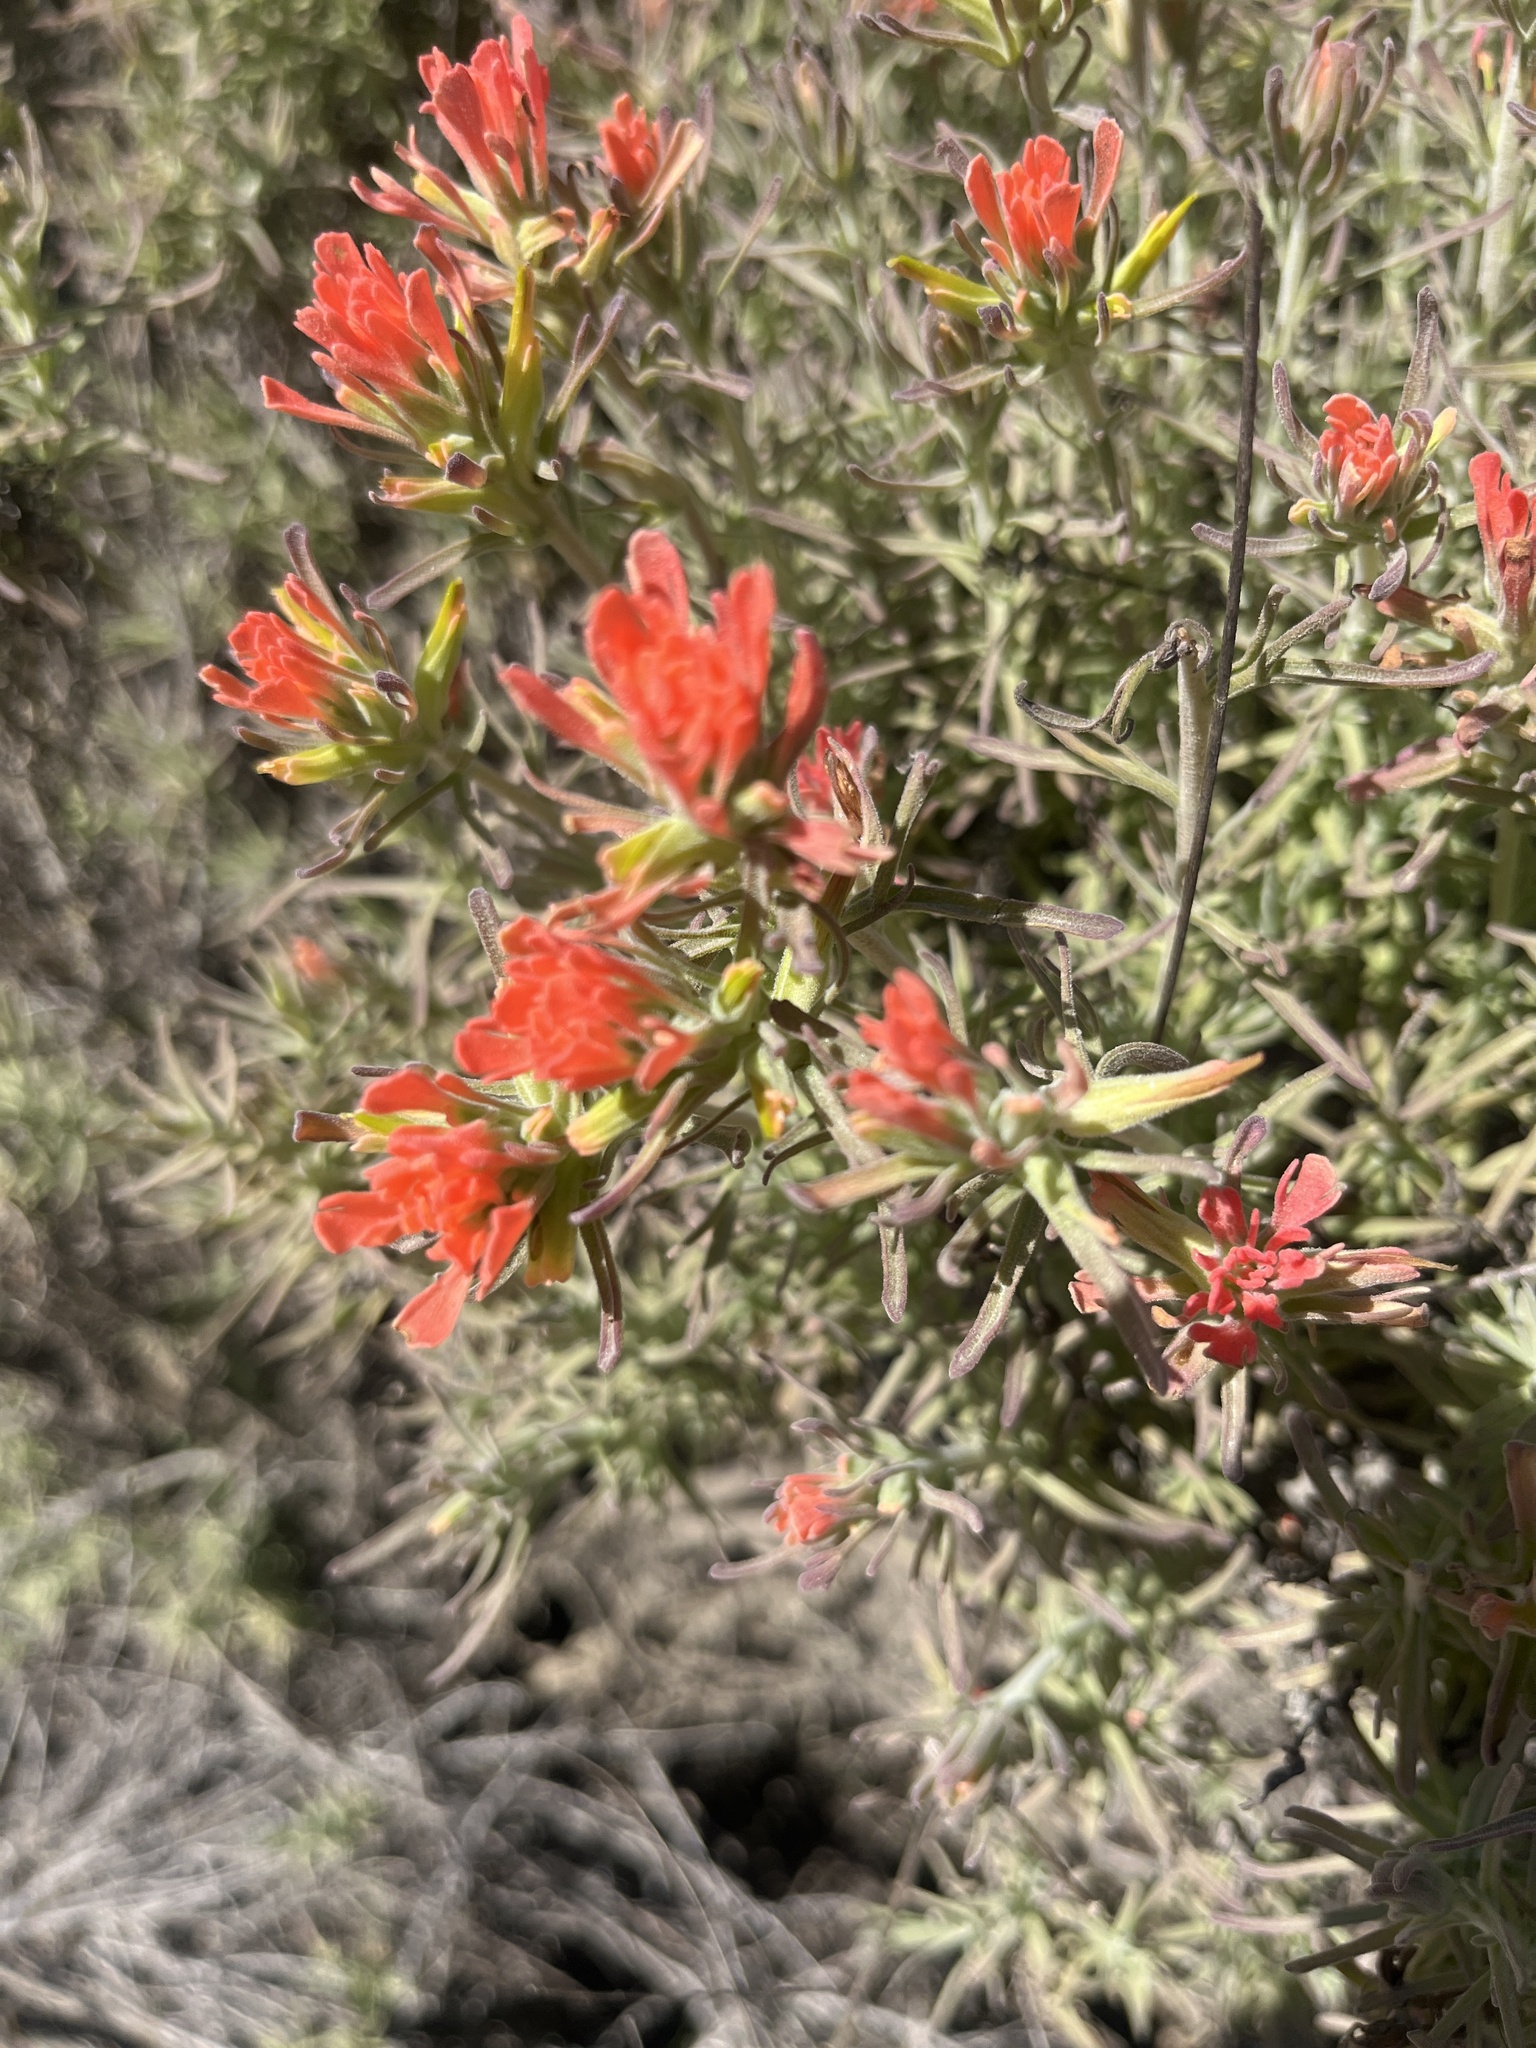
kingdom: Plantae
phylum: Tracheophyta
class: Magnoliopsida
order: Lamiales
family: Orobanchaceae
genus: Castilleja
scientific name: Castilleja foliolosa
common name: Woolly indian paintbrush
